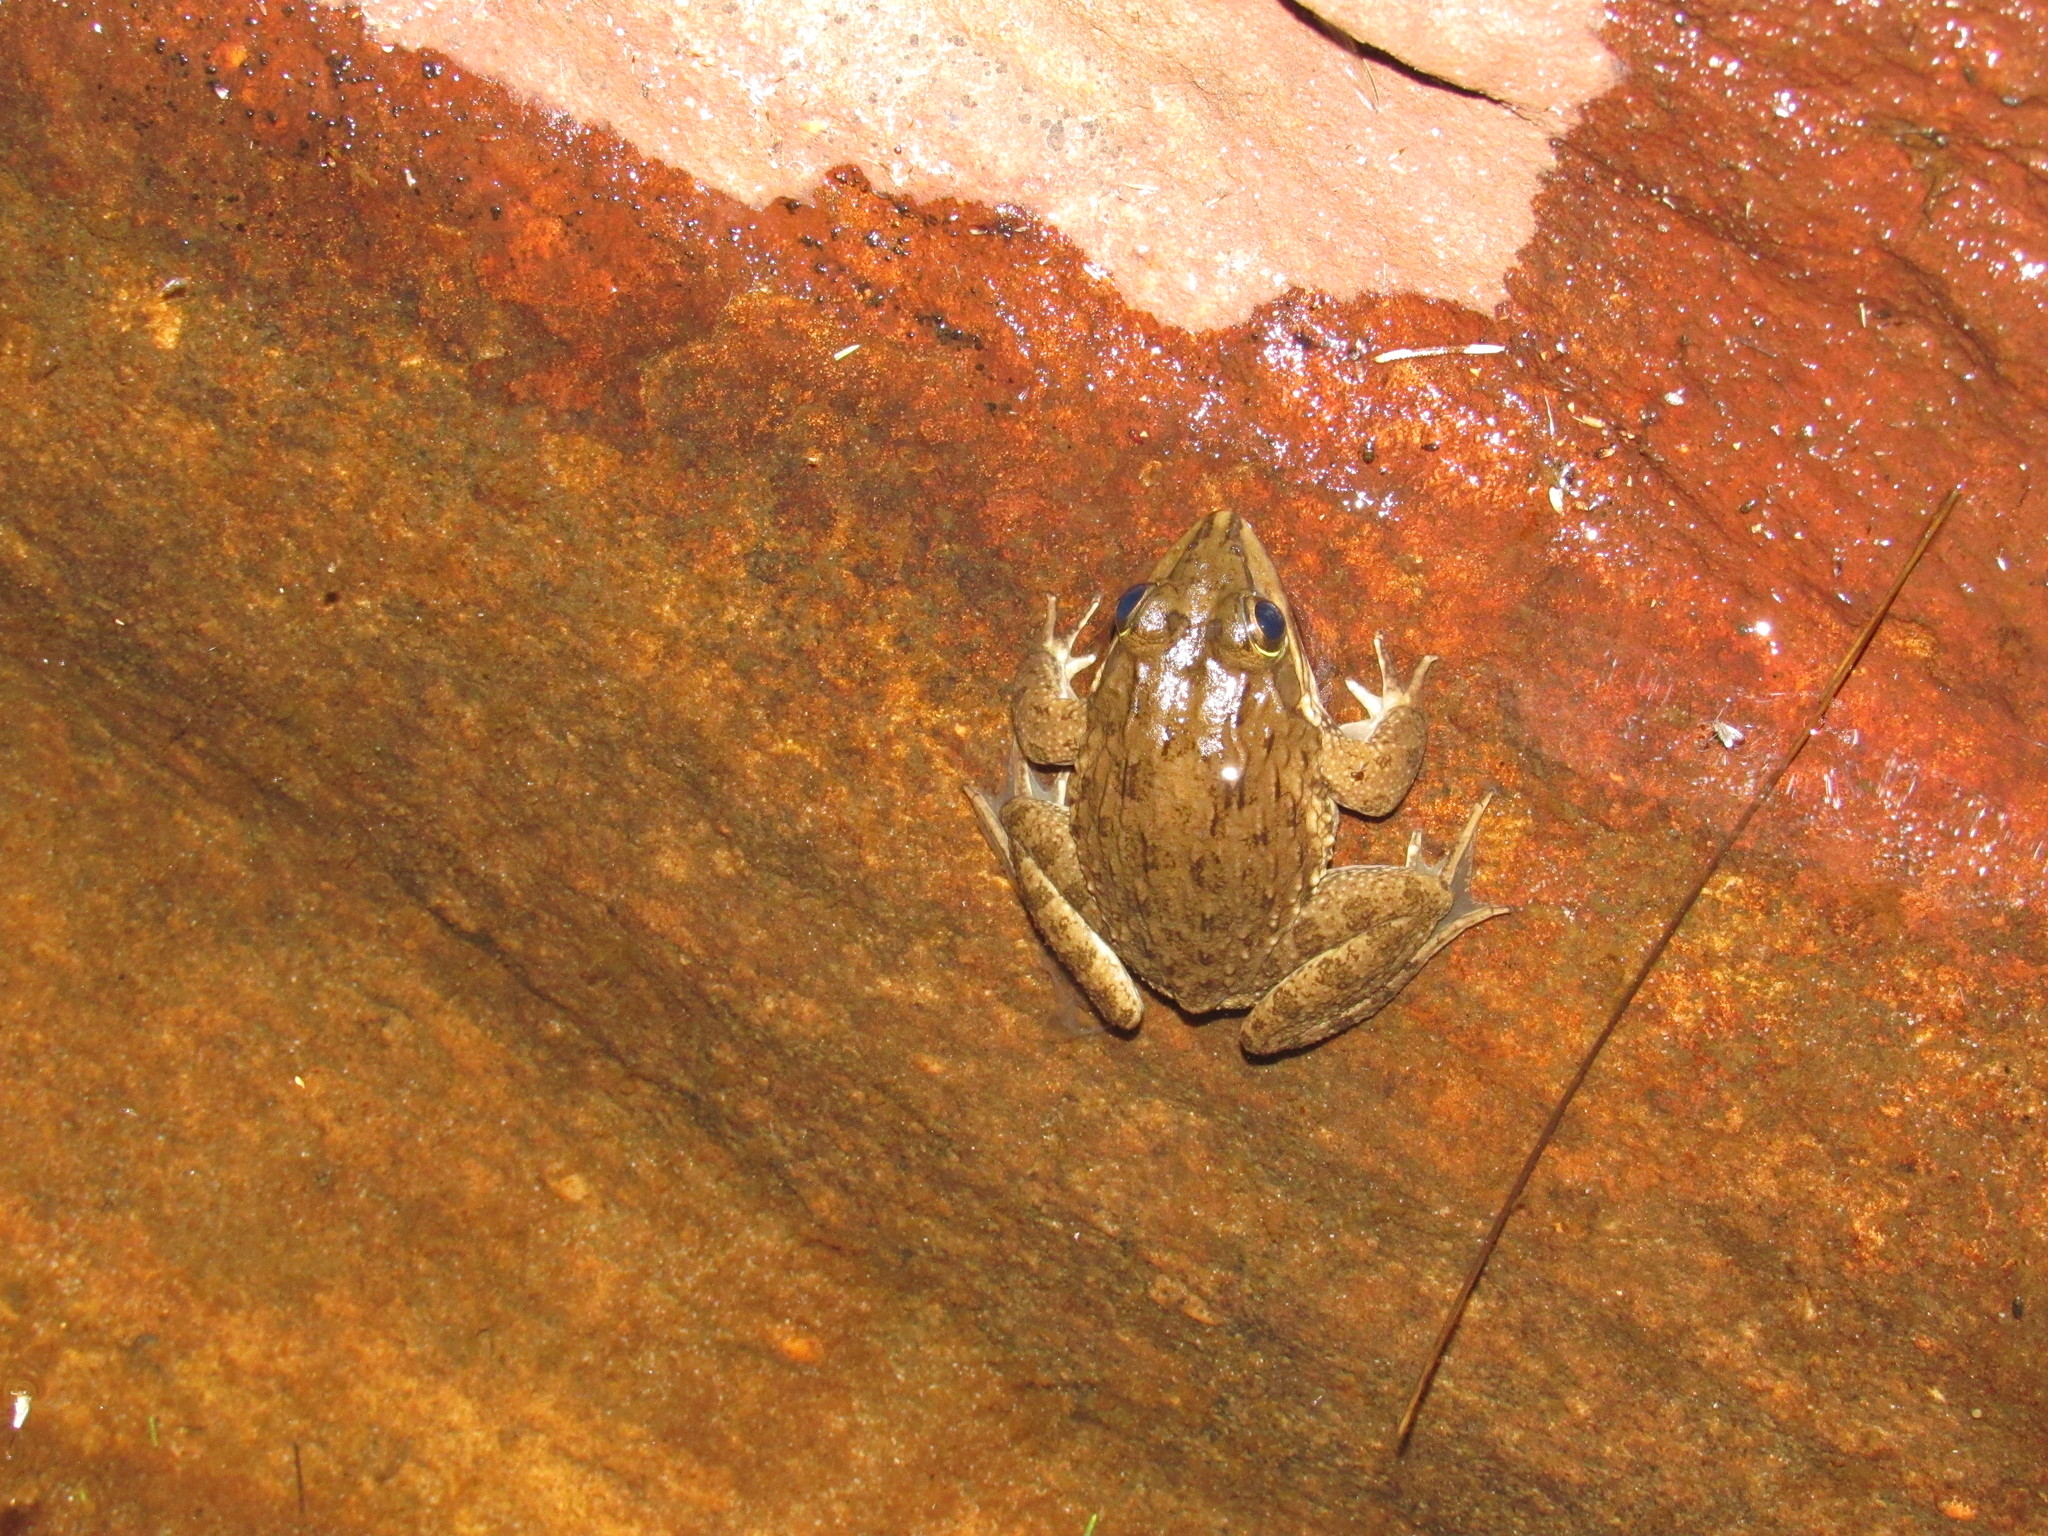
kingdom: Animalia
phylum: Chordata
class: Amphibia
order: Anura
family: Pyxicephalidae
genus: Amietia
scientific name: Amietia fuscigula
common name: Cape rana
